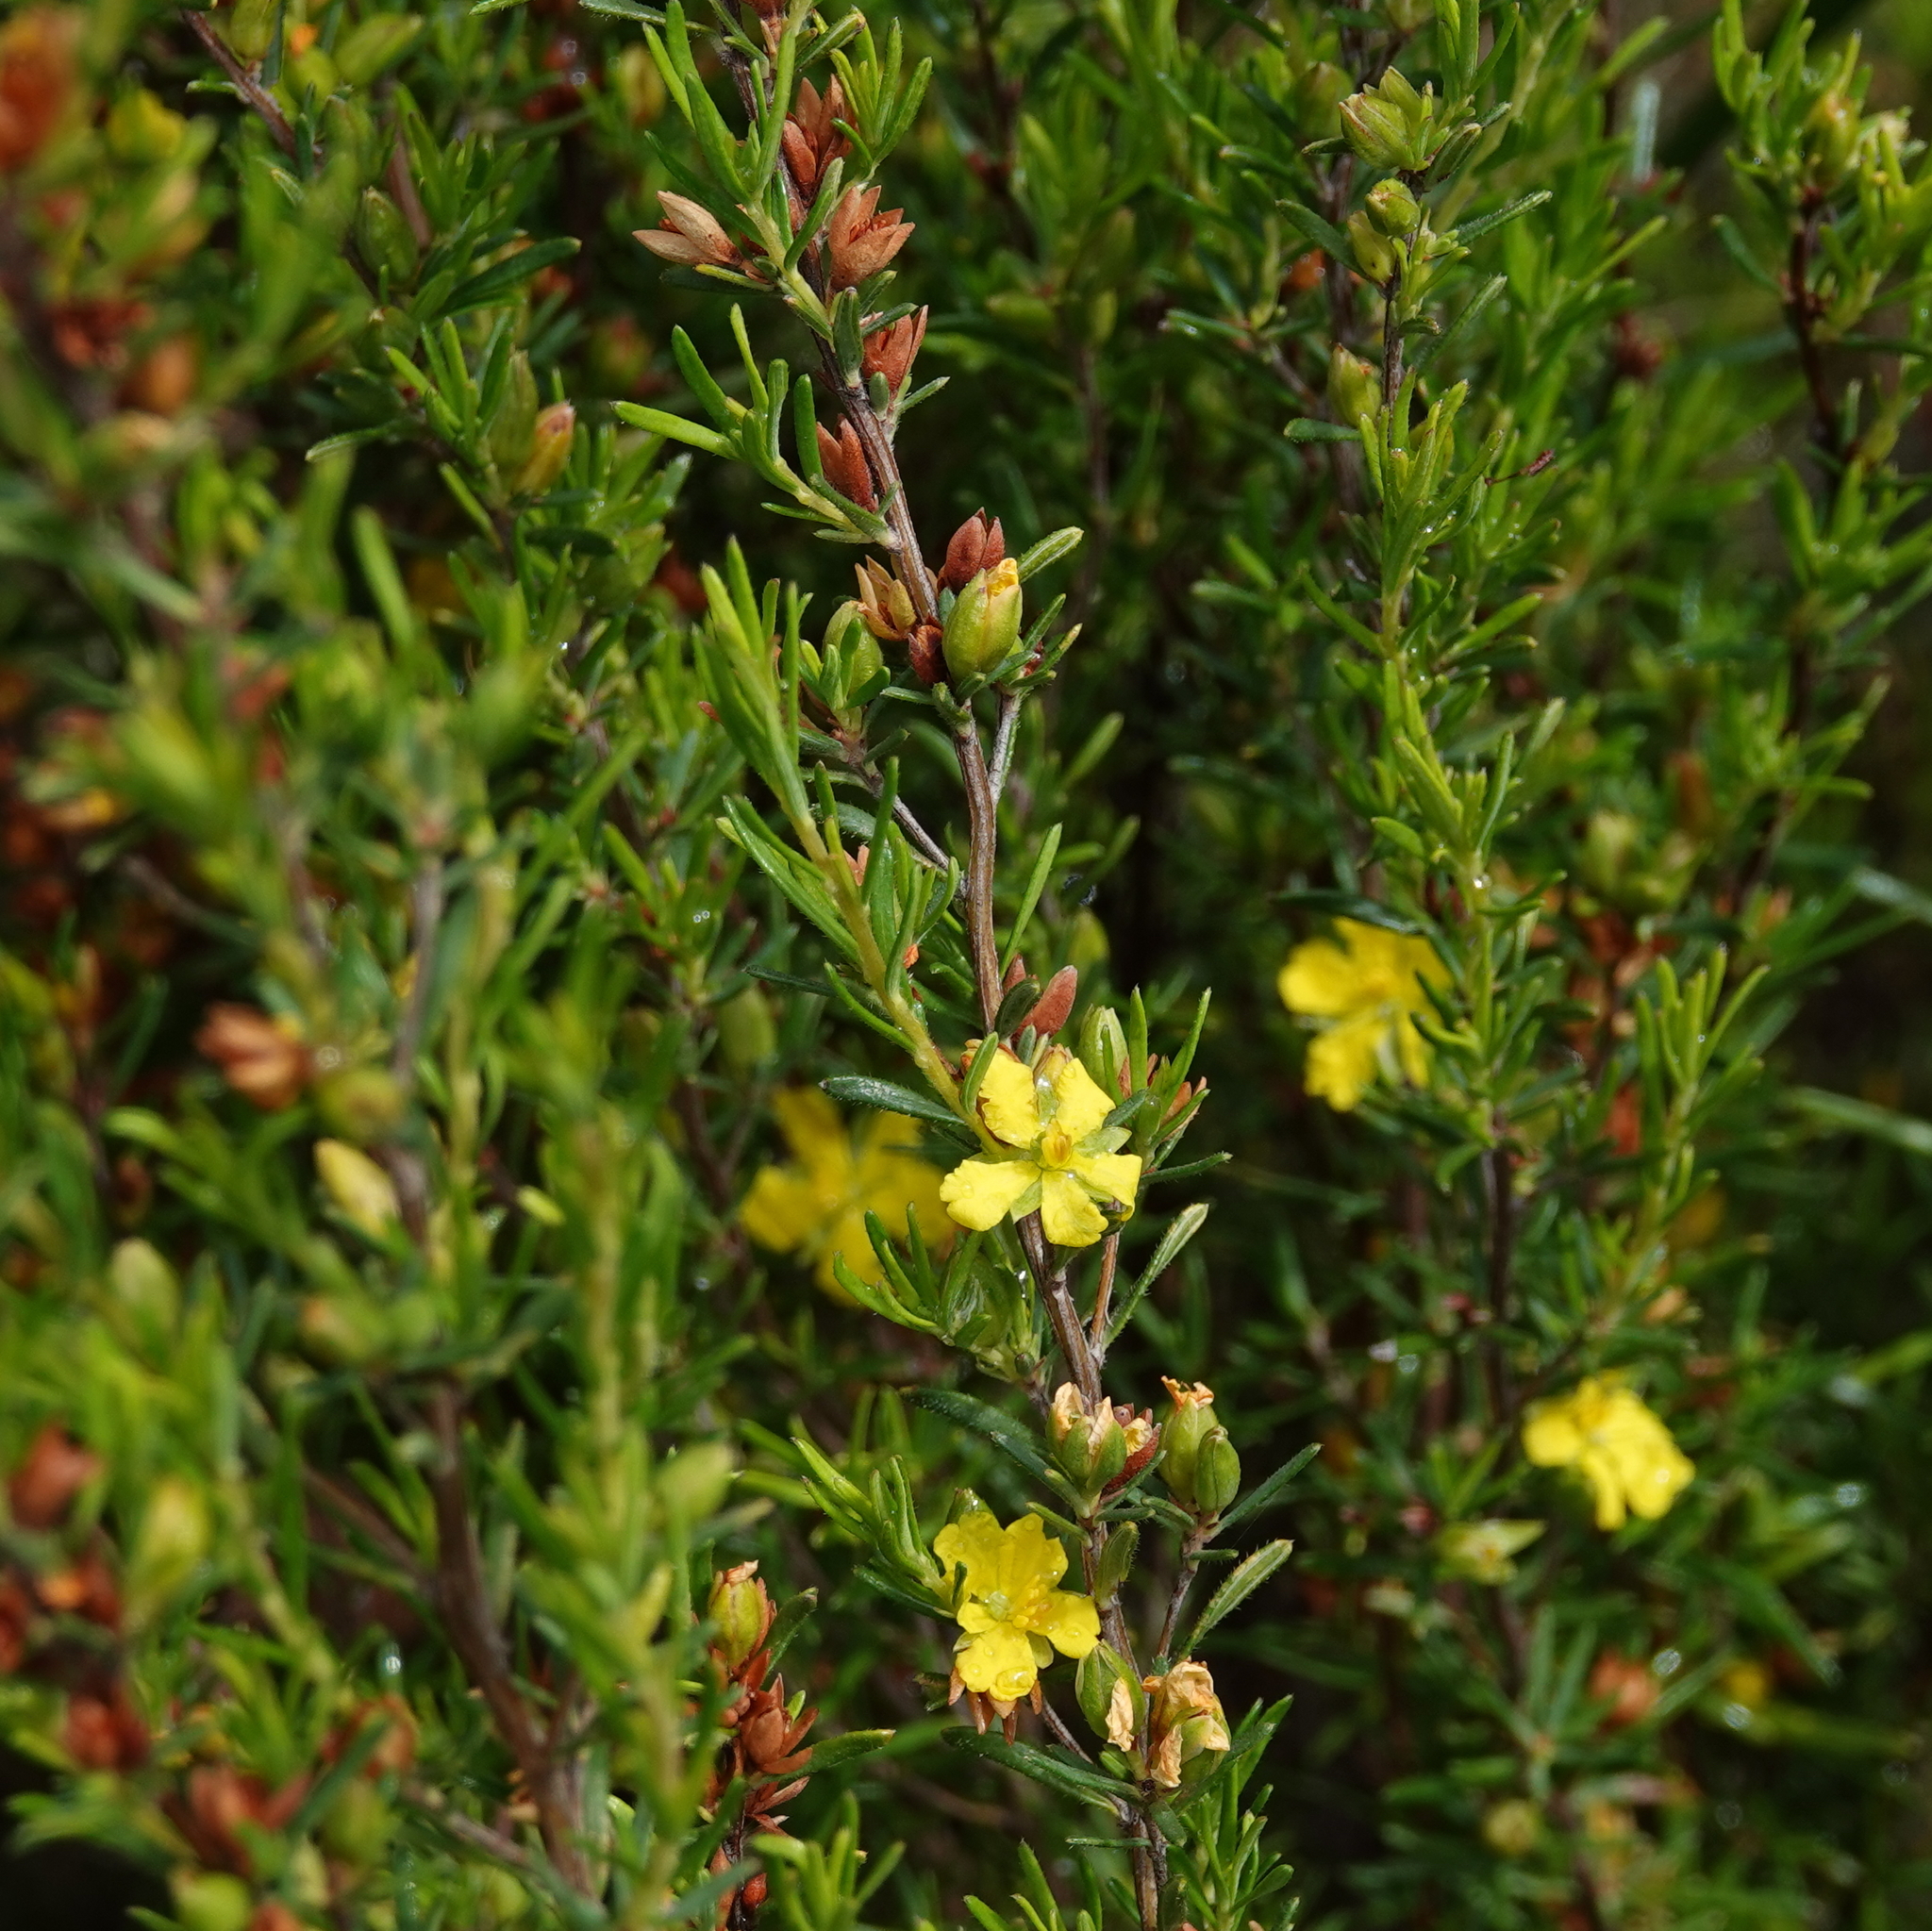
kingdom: Plantae
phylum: Tracheophyta
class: Magnoliopsida
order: Dilleniales
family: Dilleniaceae
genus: Hibbertia
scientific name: Hibbertia riparia
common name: Erect guinea-flower
